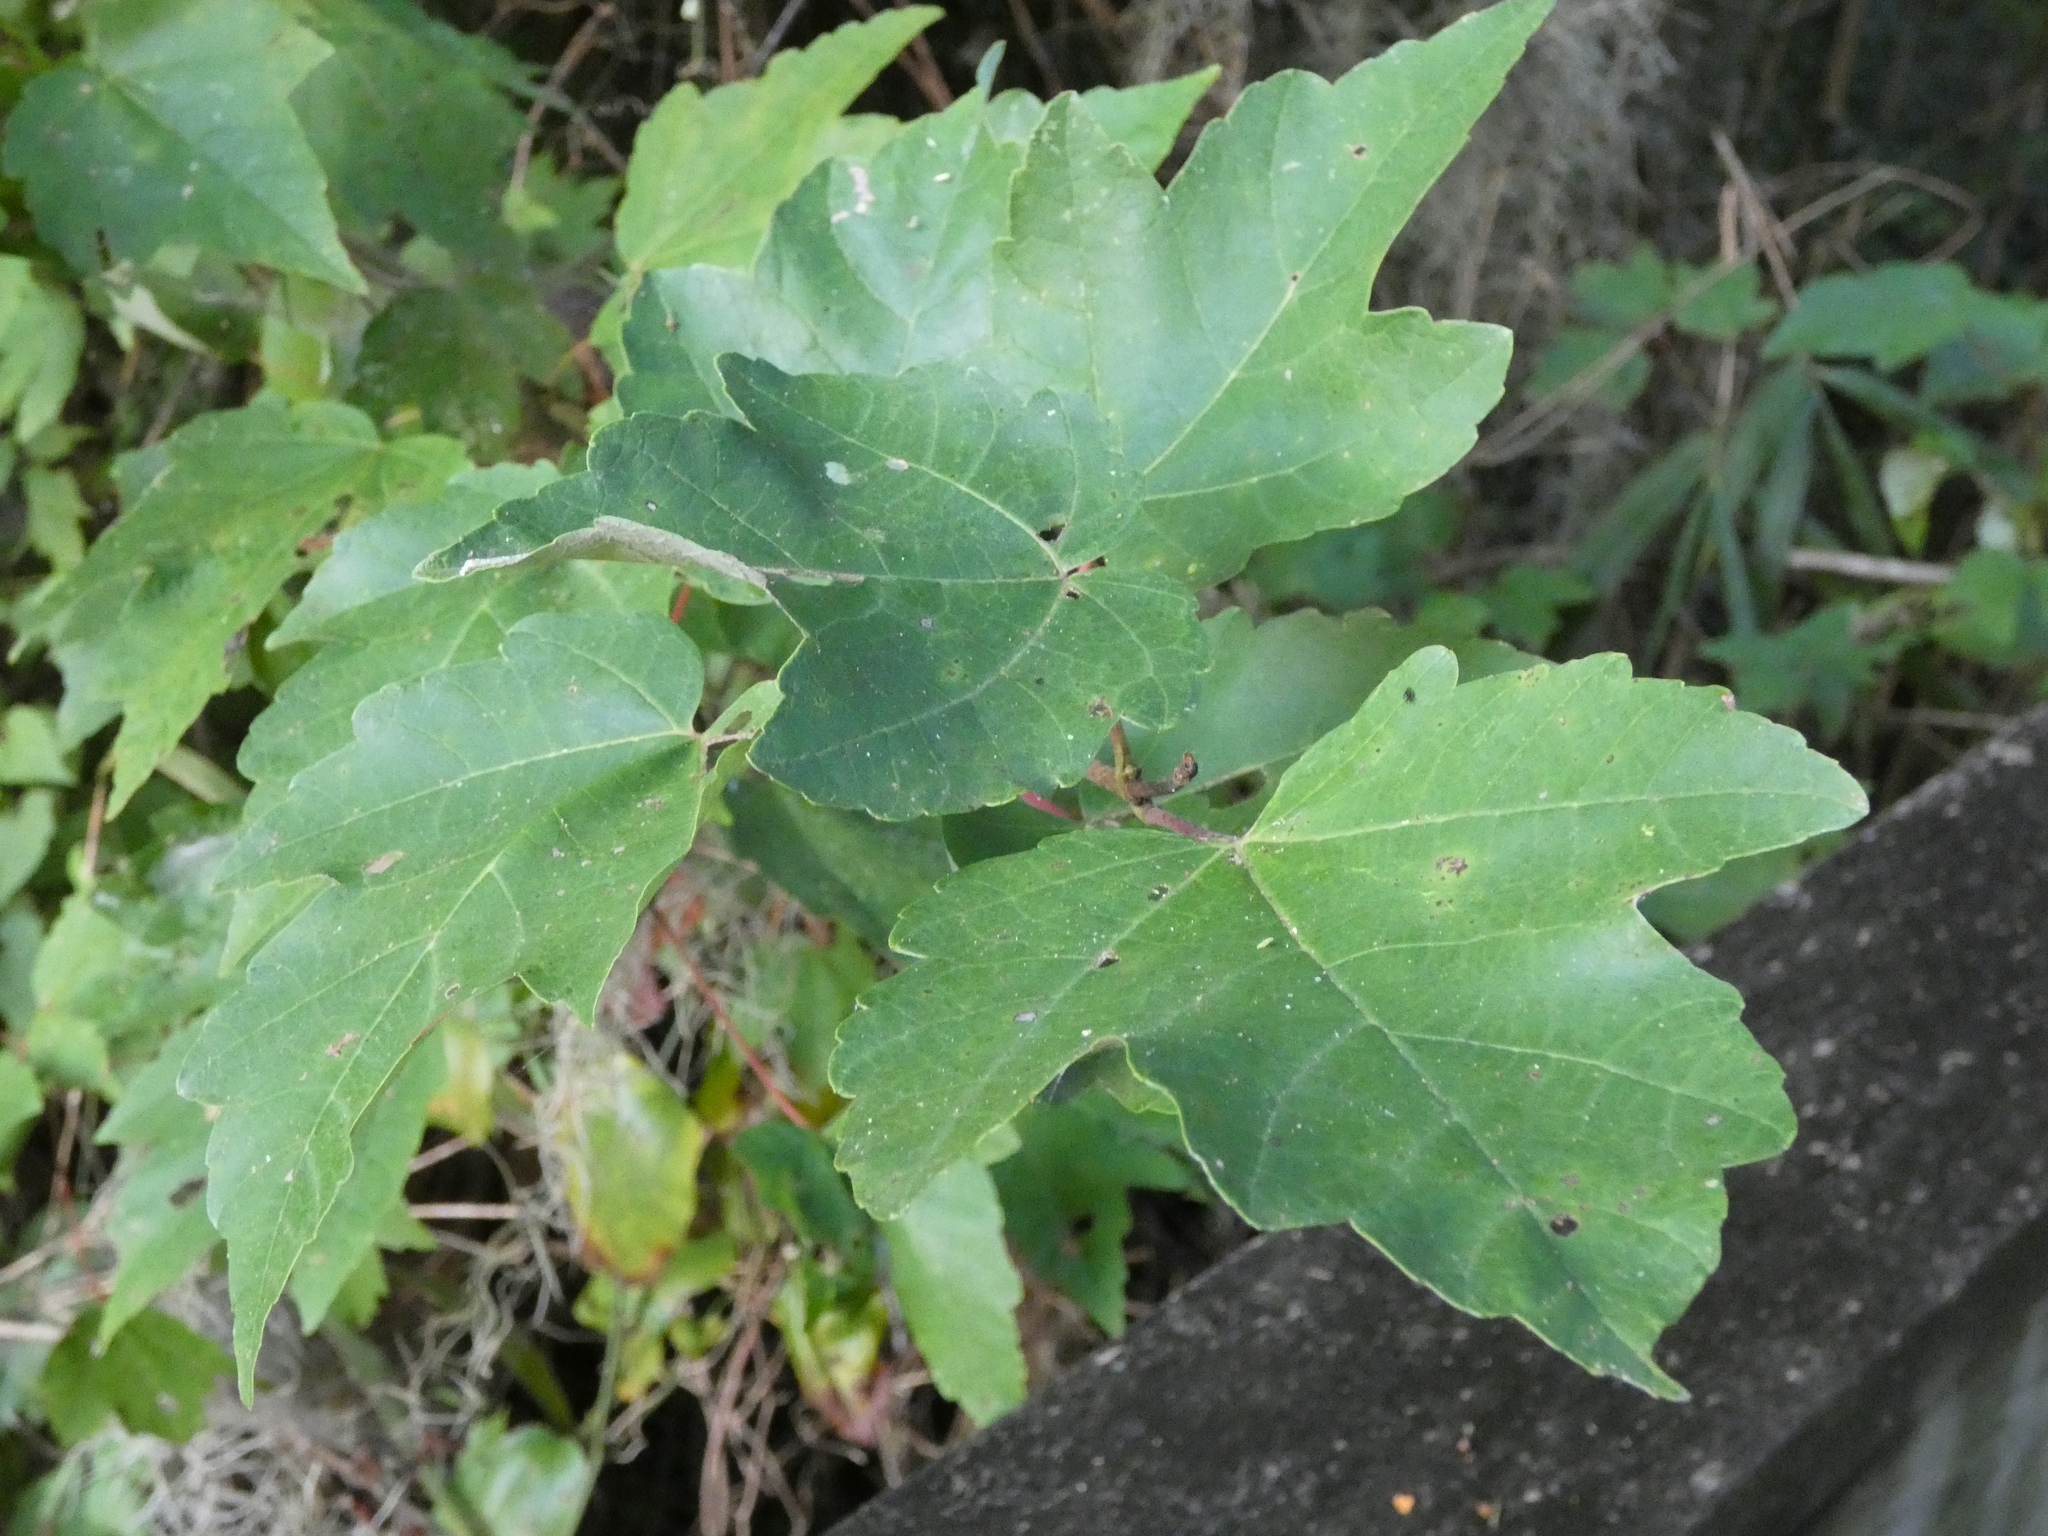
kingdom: Plantae
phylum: Tracheophyta
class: Magnoliopsida
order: Sapindales
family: Sapindaceae
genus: Acer
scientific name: Acer rubrum
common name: Red maple
